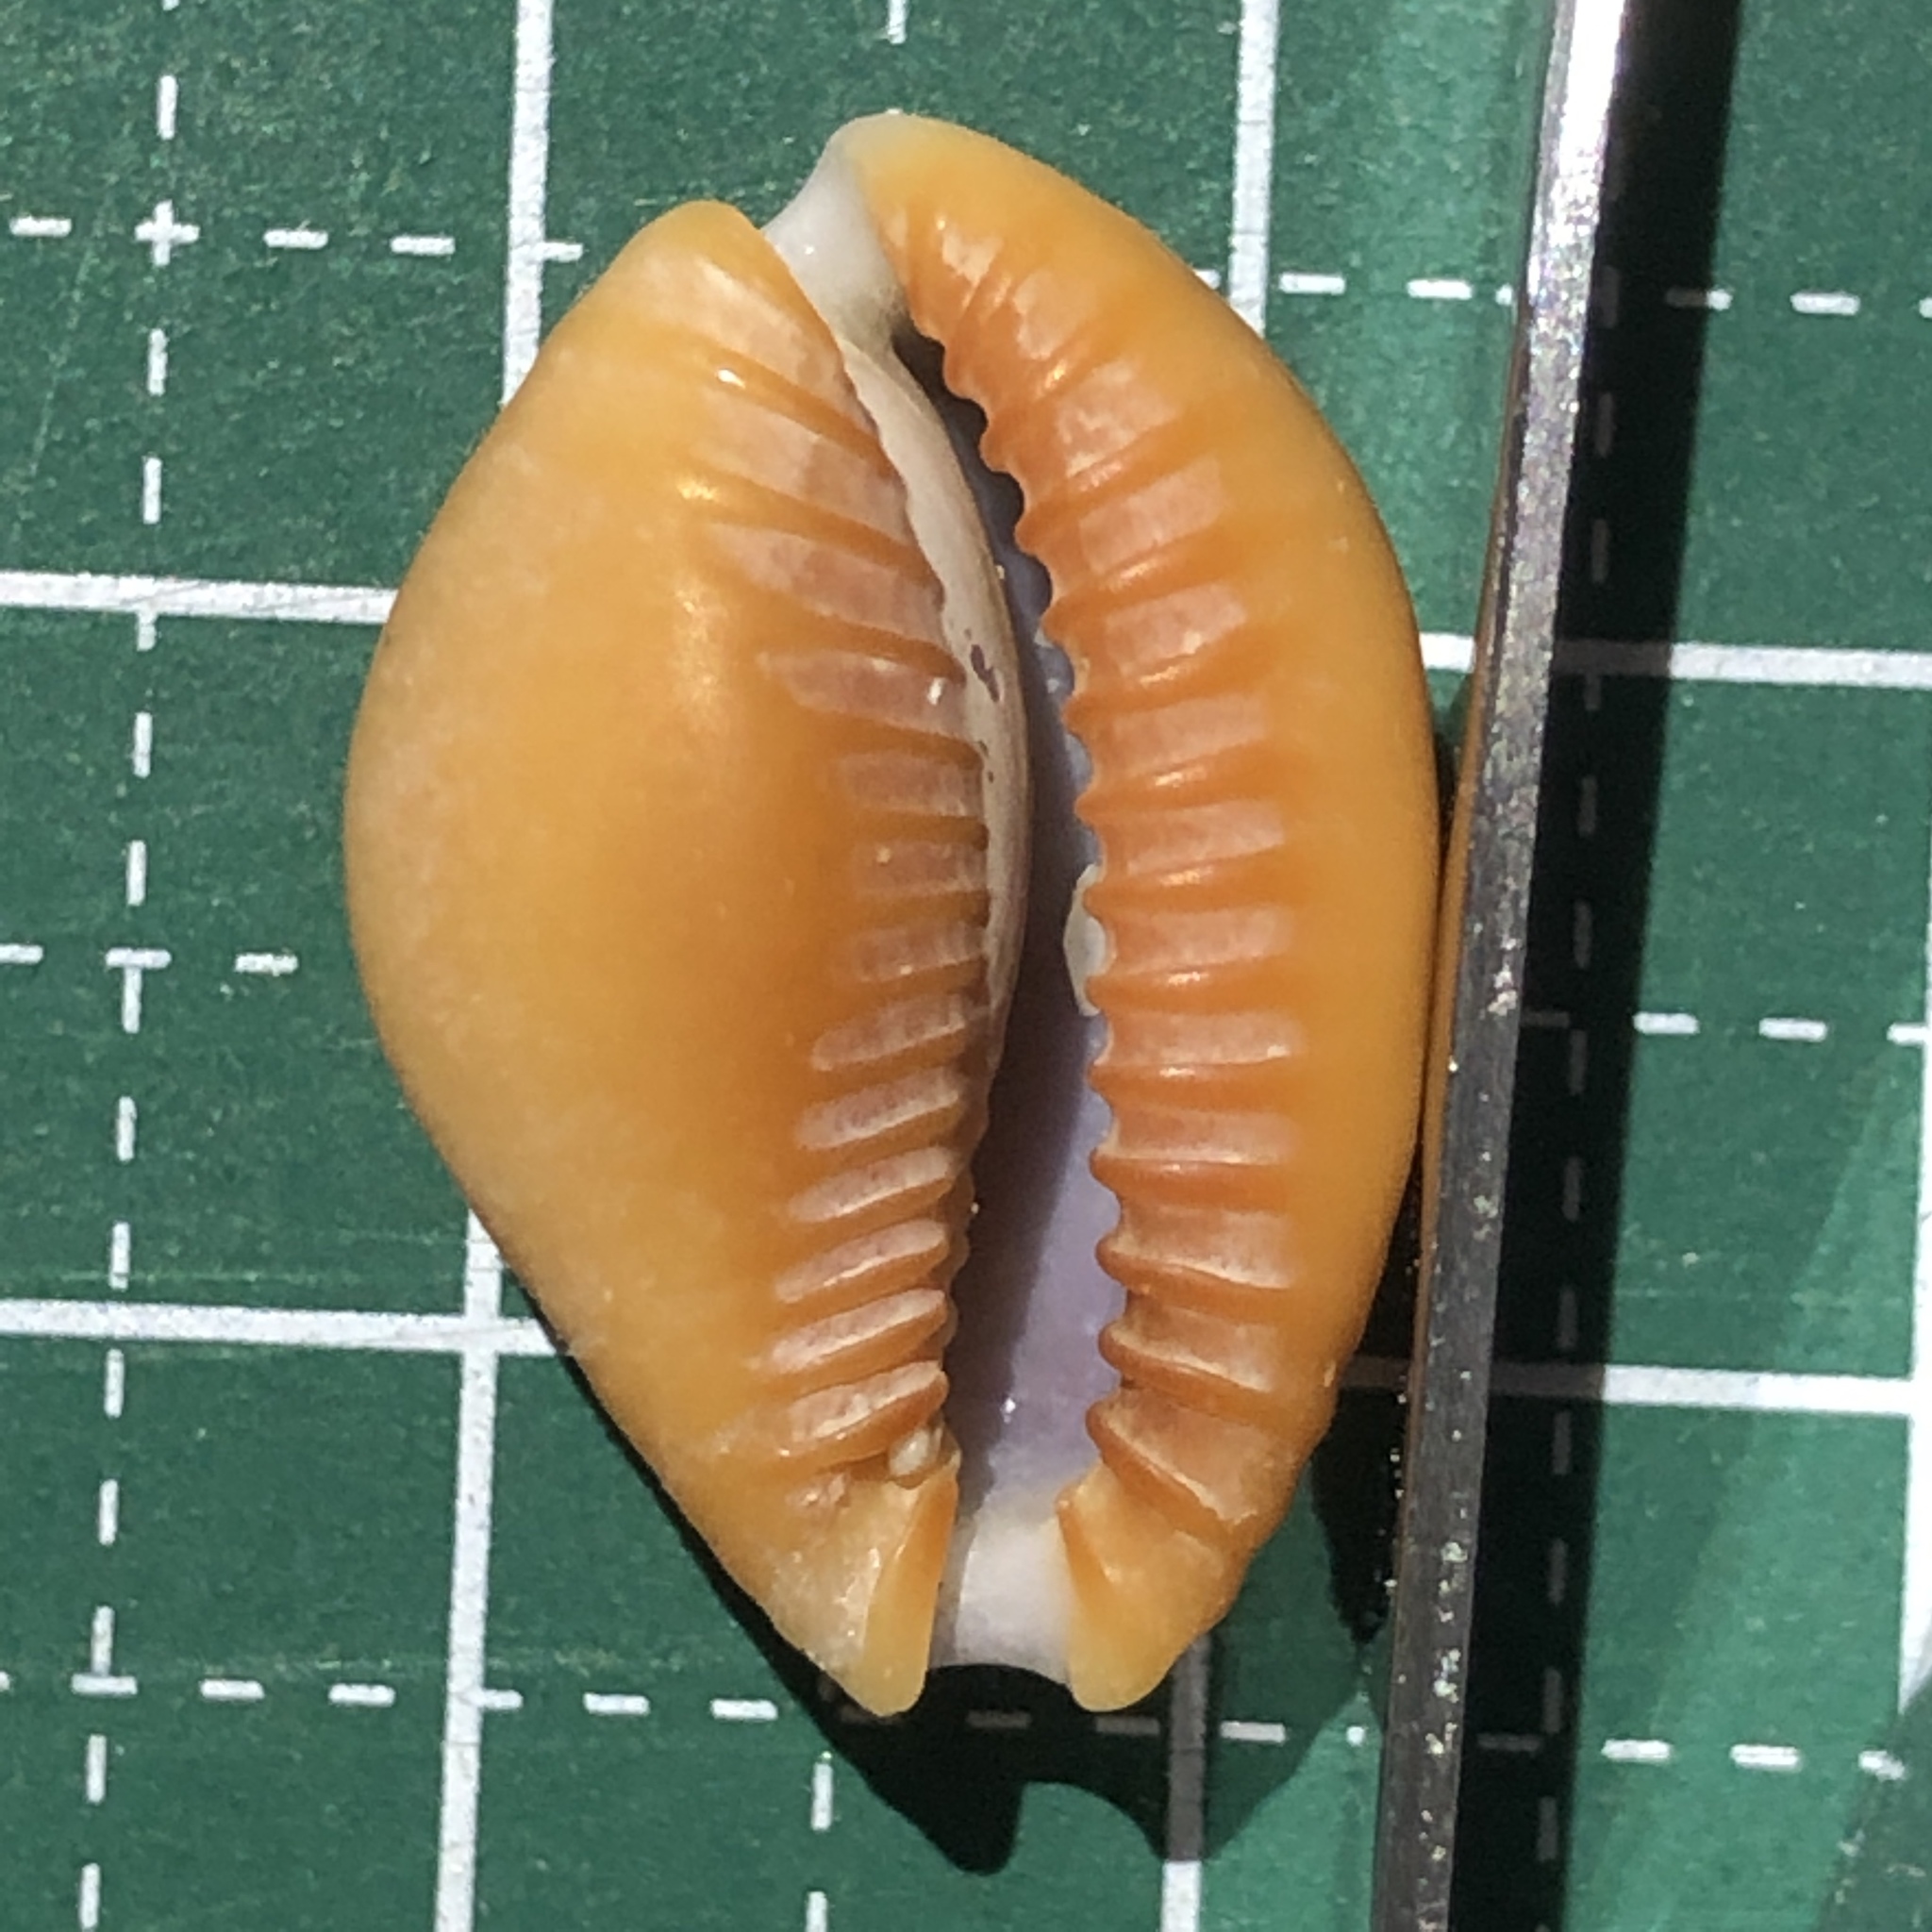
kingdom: Animalia
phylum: Mollusca
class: Gastropoda
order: Littorinimorpha
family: Cypraeidae
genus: Naria
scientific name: Naria helvola
